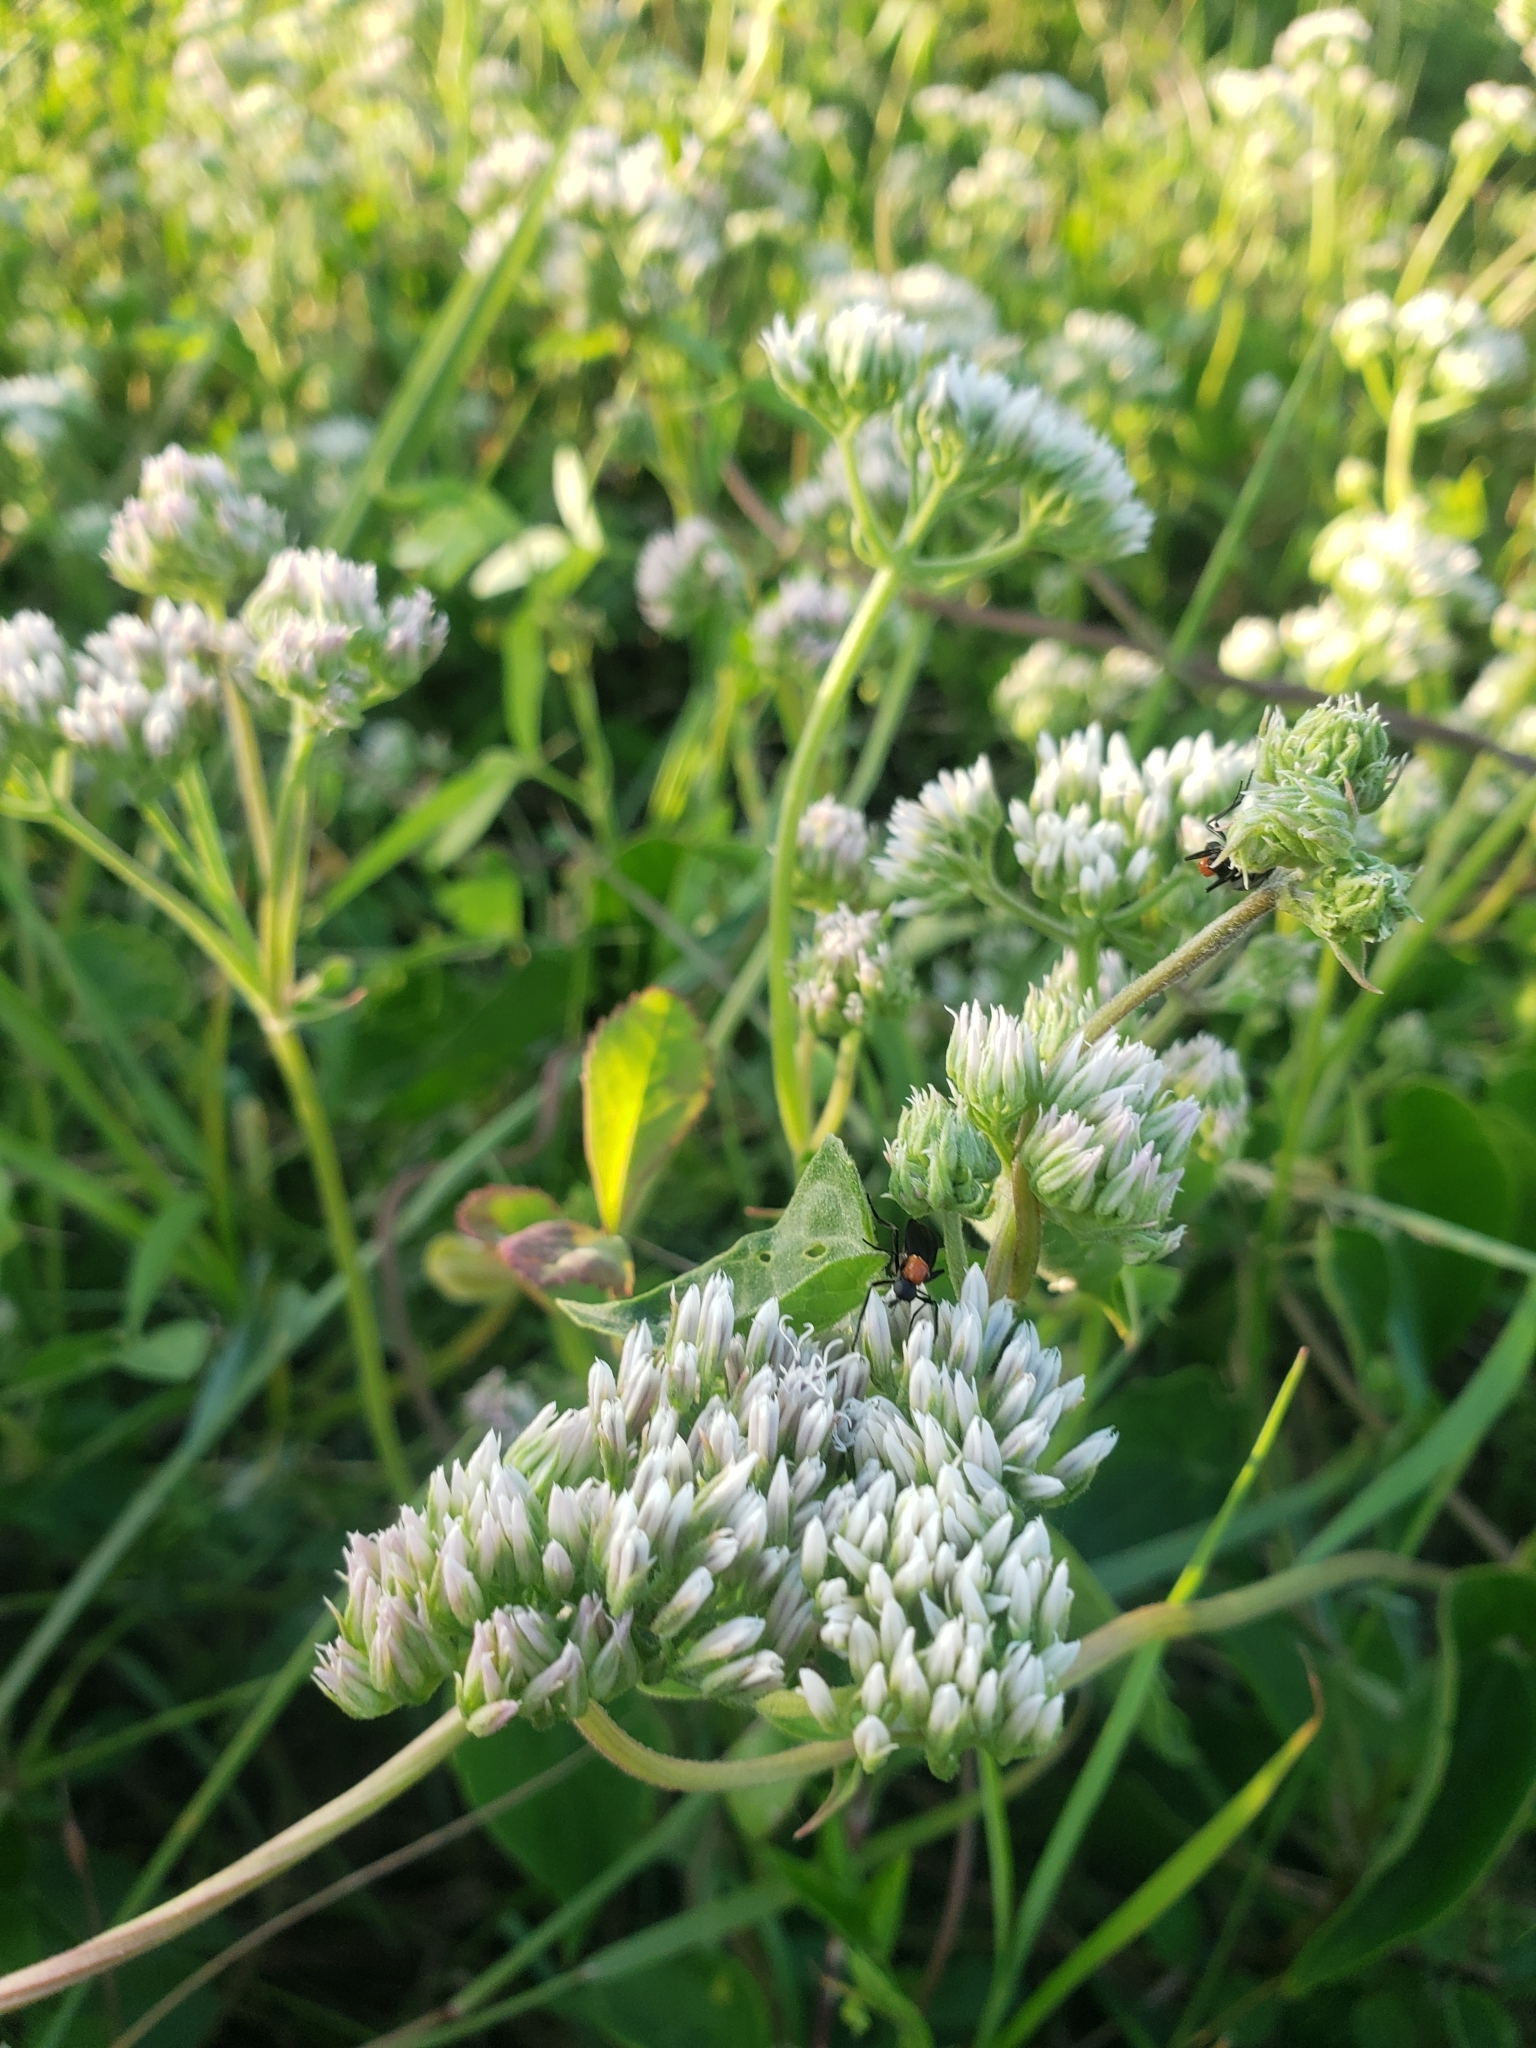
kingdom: Plantae
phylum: Tracheophyta
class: Magnoliopsida
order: Asterales
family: Asteraceae
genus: Mikania
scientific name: Mikania scandens
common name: Climbing hempvine
